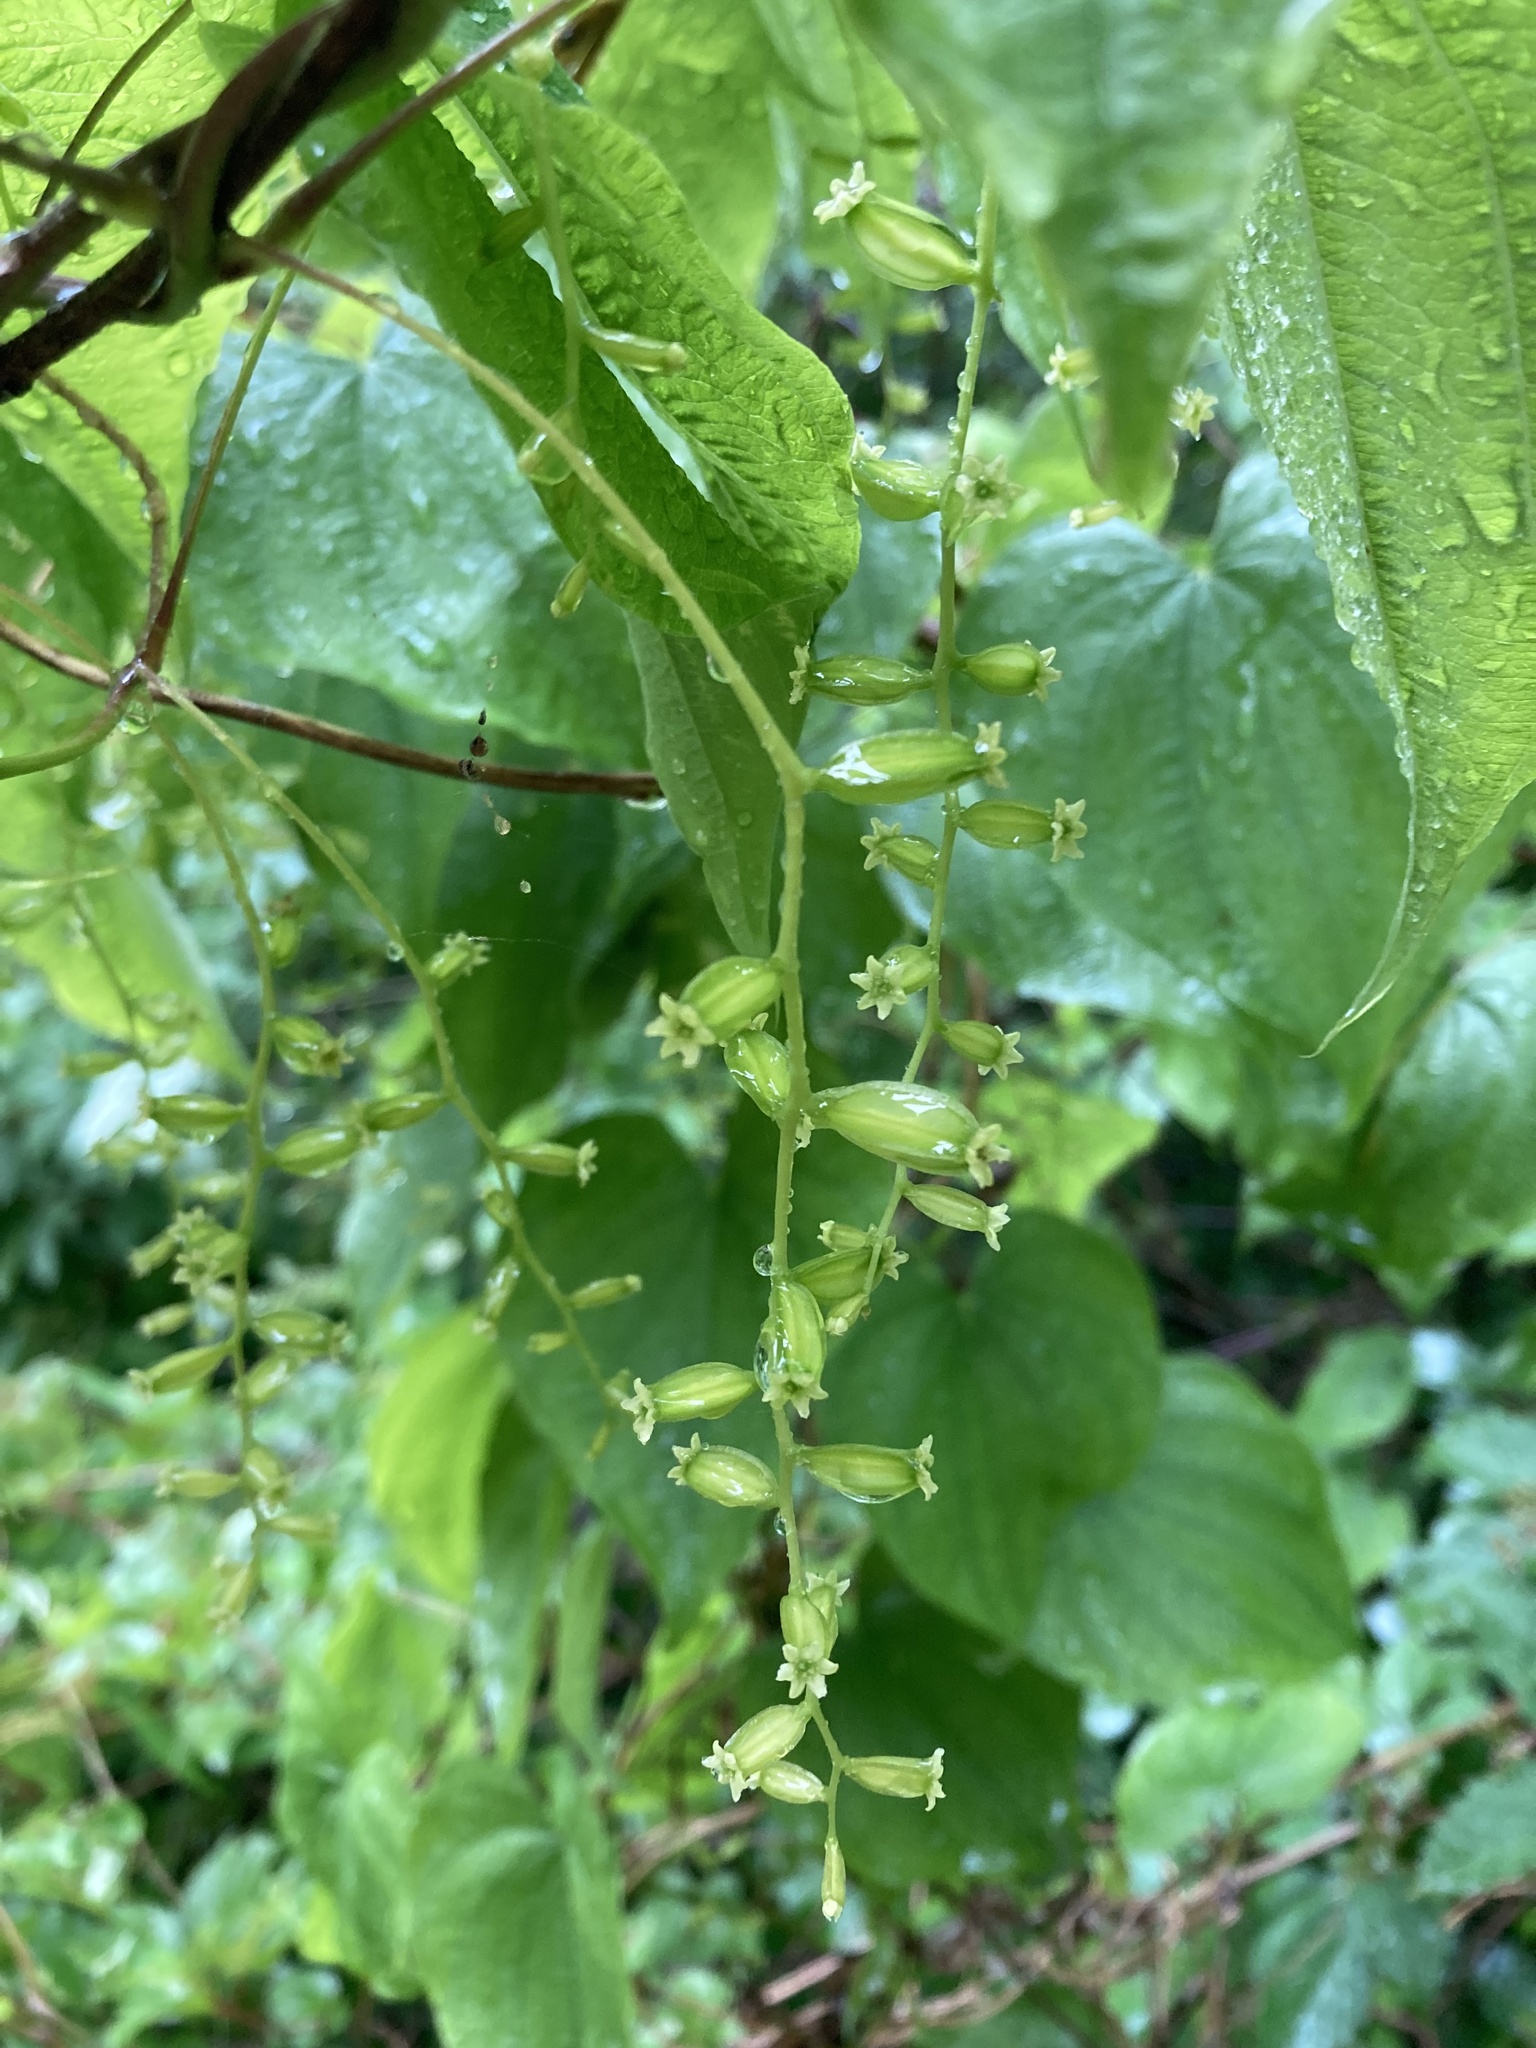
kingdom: Plantae
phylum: Tracheophyta
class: Liliopsida
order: Dioscoreales
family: Dioscoreaceae
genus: Dioscorea
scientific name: Dioscorea villosa
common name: Wild yam
